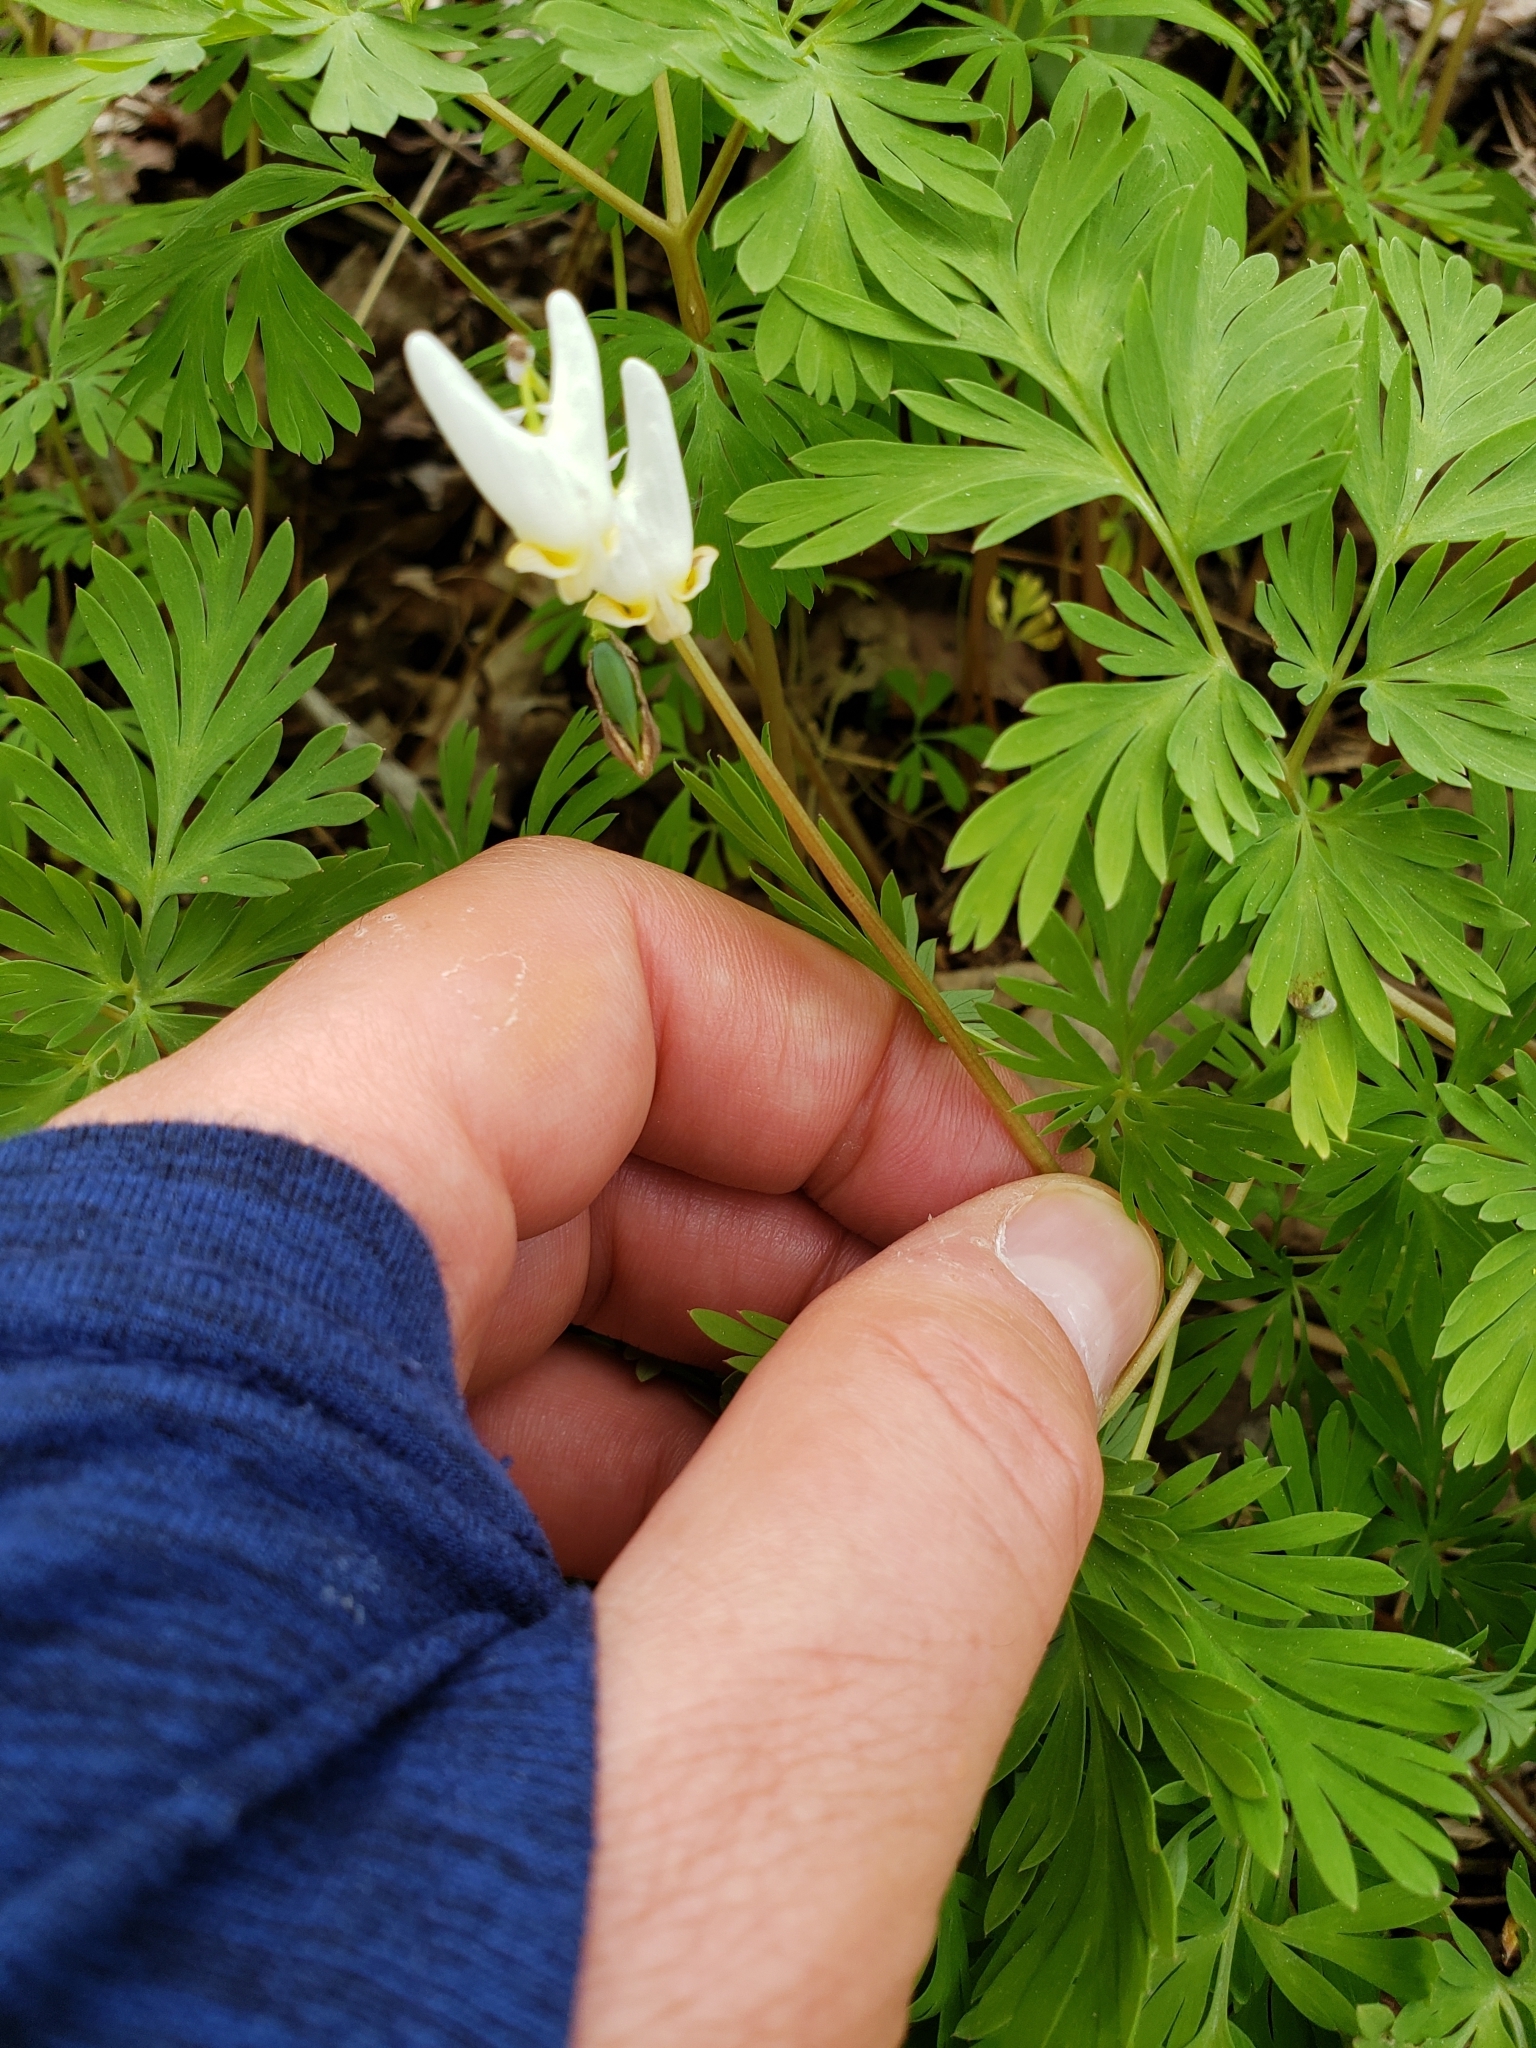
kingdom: Plantae
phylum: Tracheophyta
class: Magnoliopsida
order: Ranunculales
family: Papaveraceae
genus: Dicentra
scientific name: Dicentra cucullaria
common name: Dutchman's breeches
